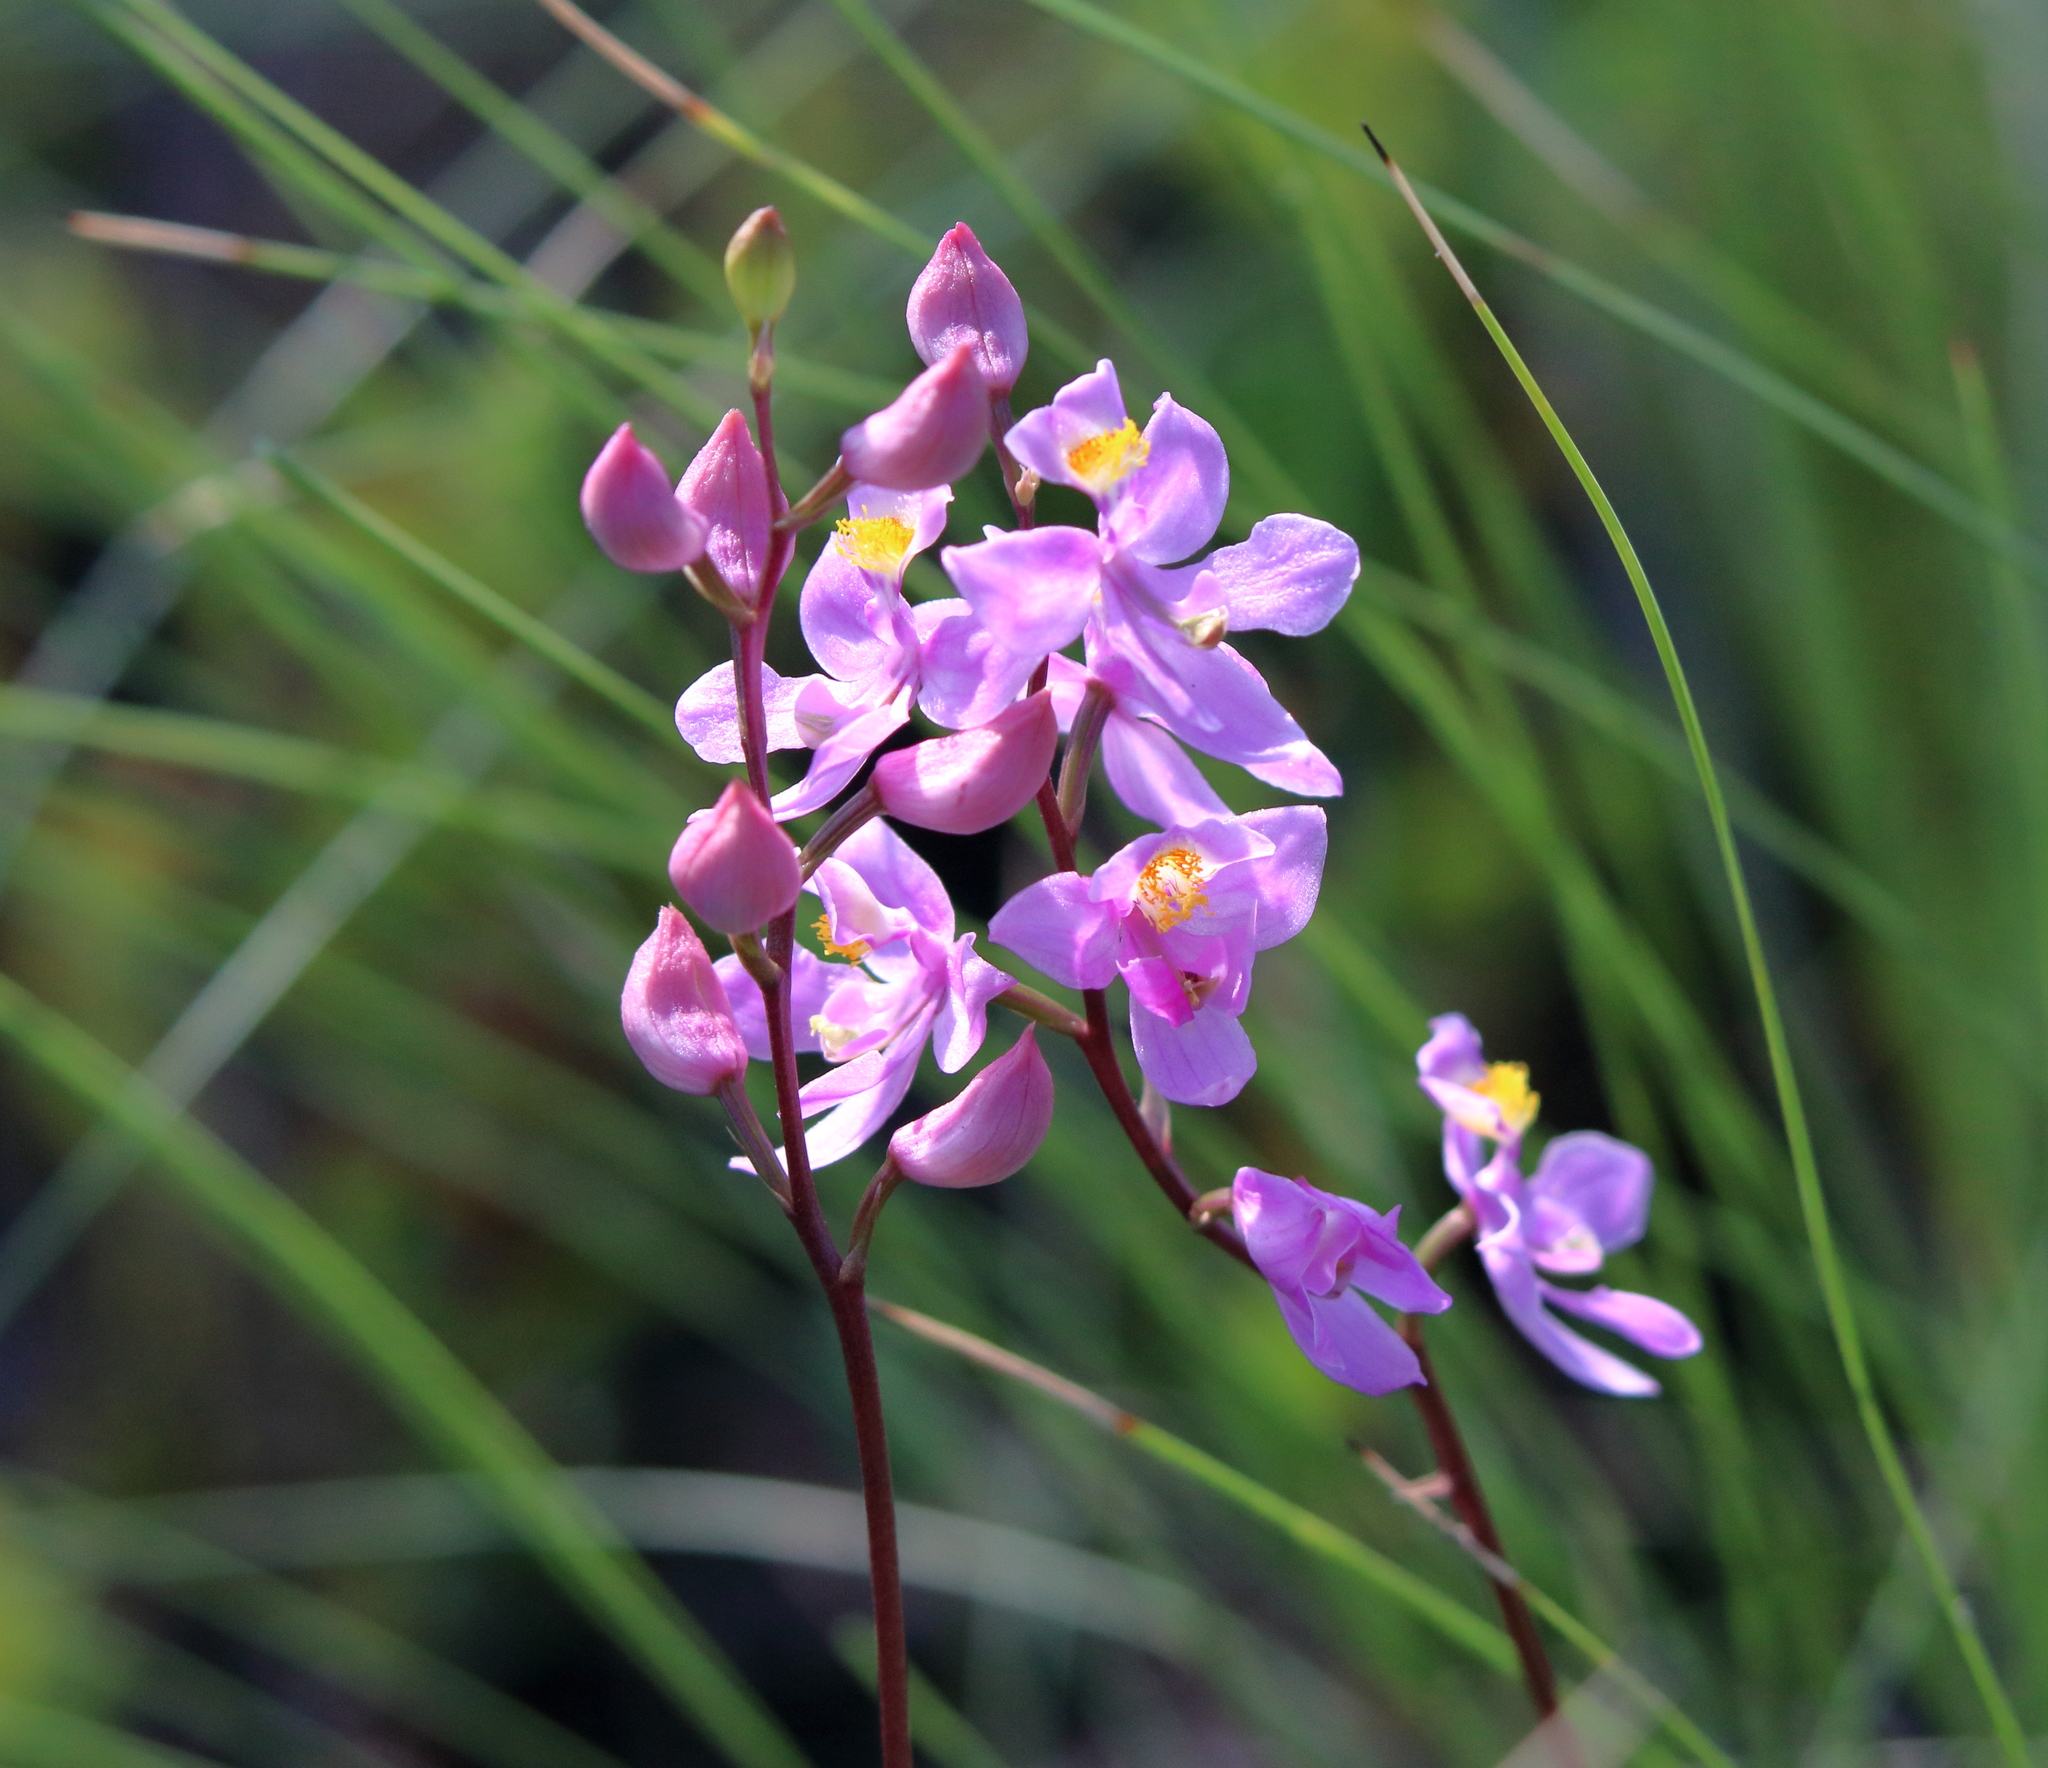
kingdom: Plantae
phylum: Tracheophyta
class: Liliopsida
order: Asparagales
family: Orchidaceae
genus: Calopogon
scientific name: Calopogon multiflorus
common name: Many-flowered grass-pink orchid
